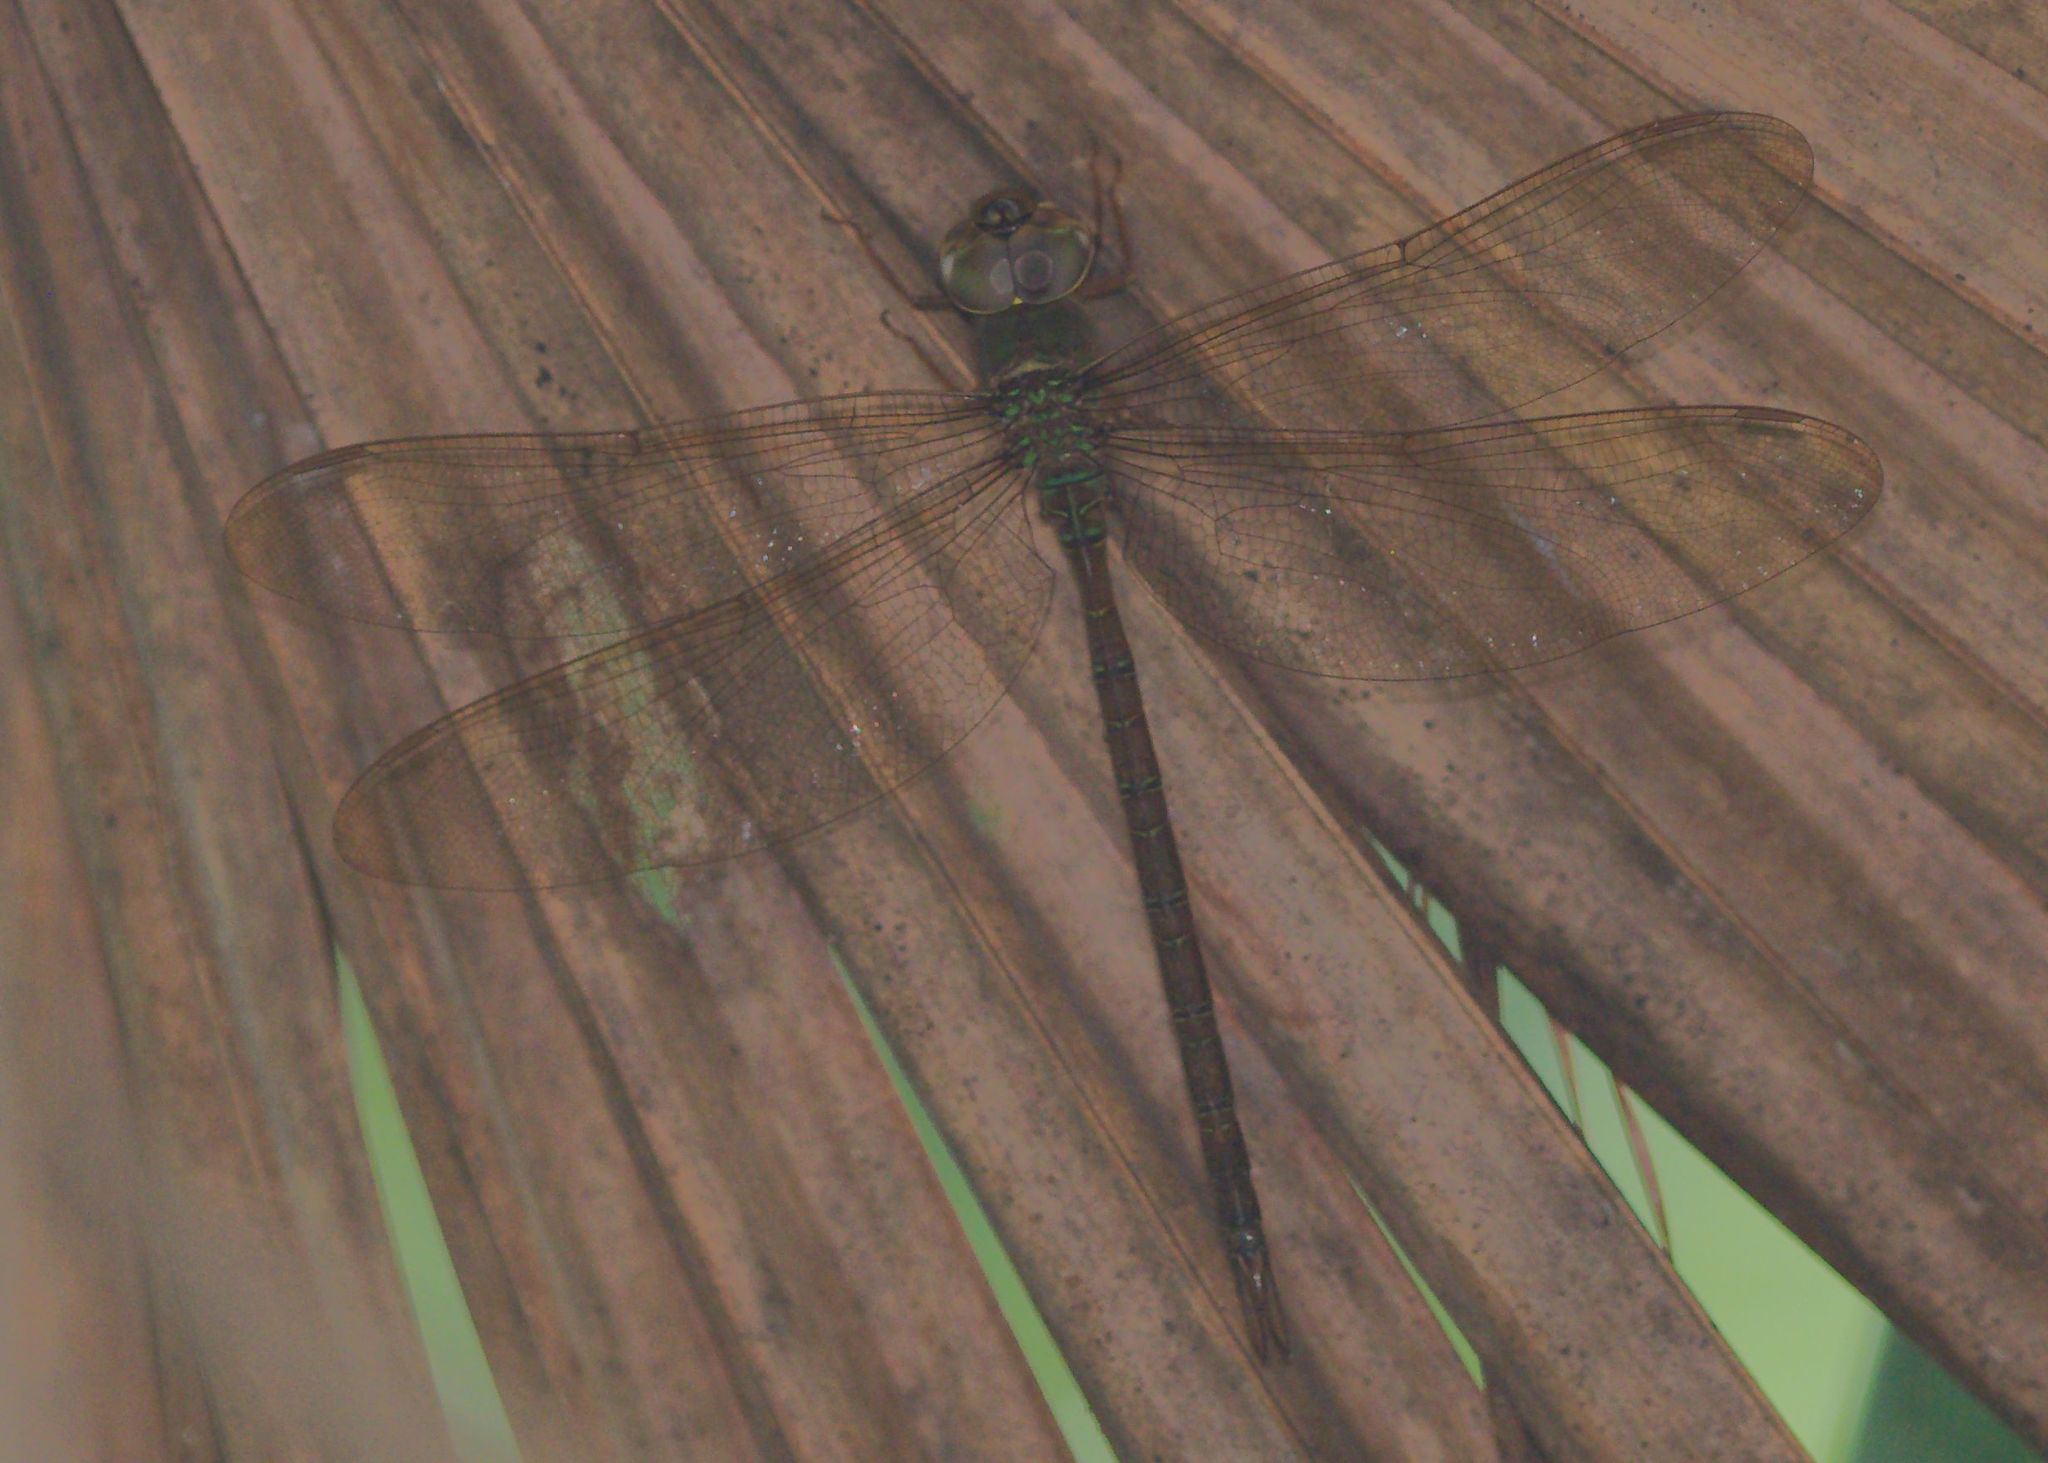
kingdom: Animalia
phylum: Arthropoda
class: Insecta
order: Odonata
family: Aeshnidae
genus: Gynacantha
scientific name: Gynacantha nervosa
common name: Twilight darner
